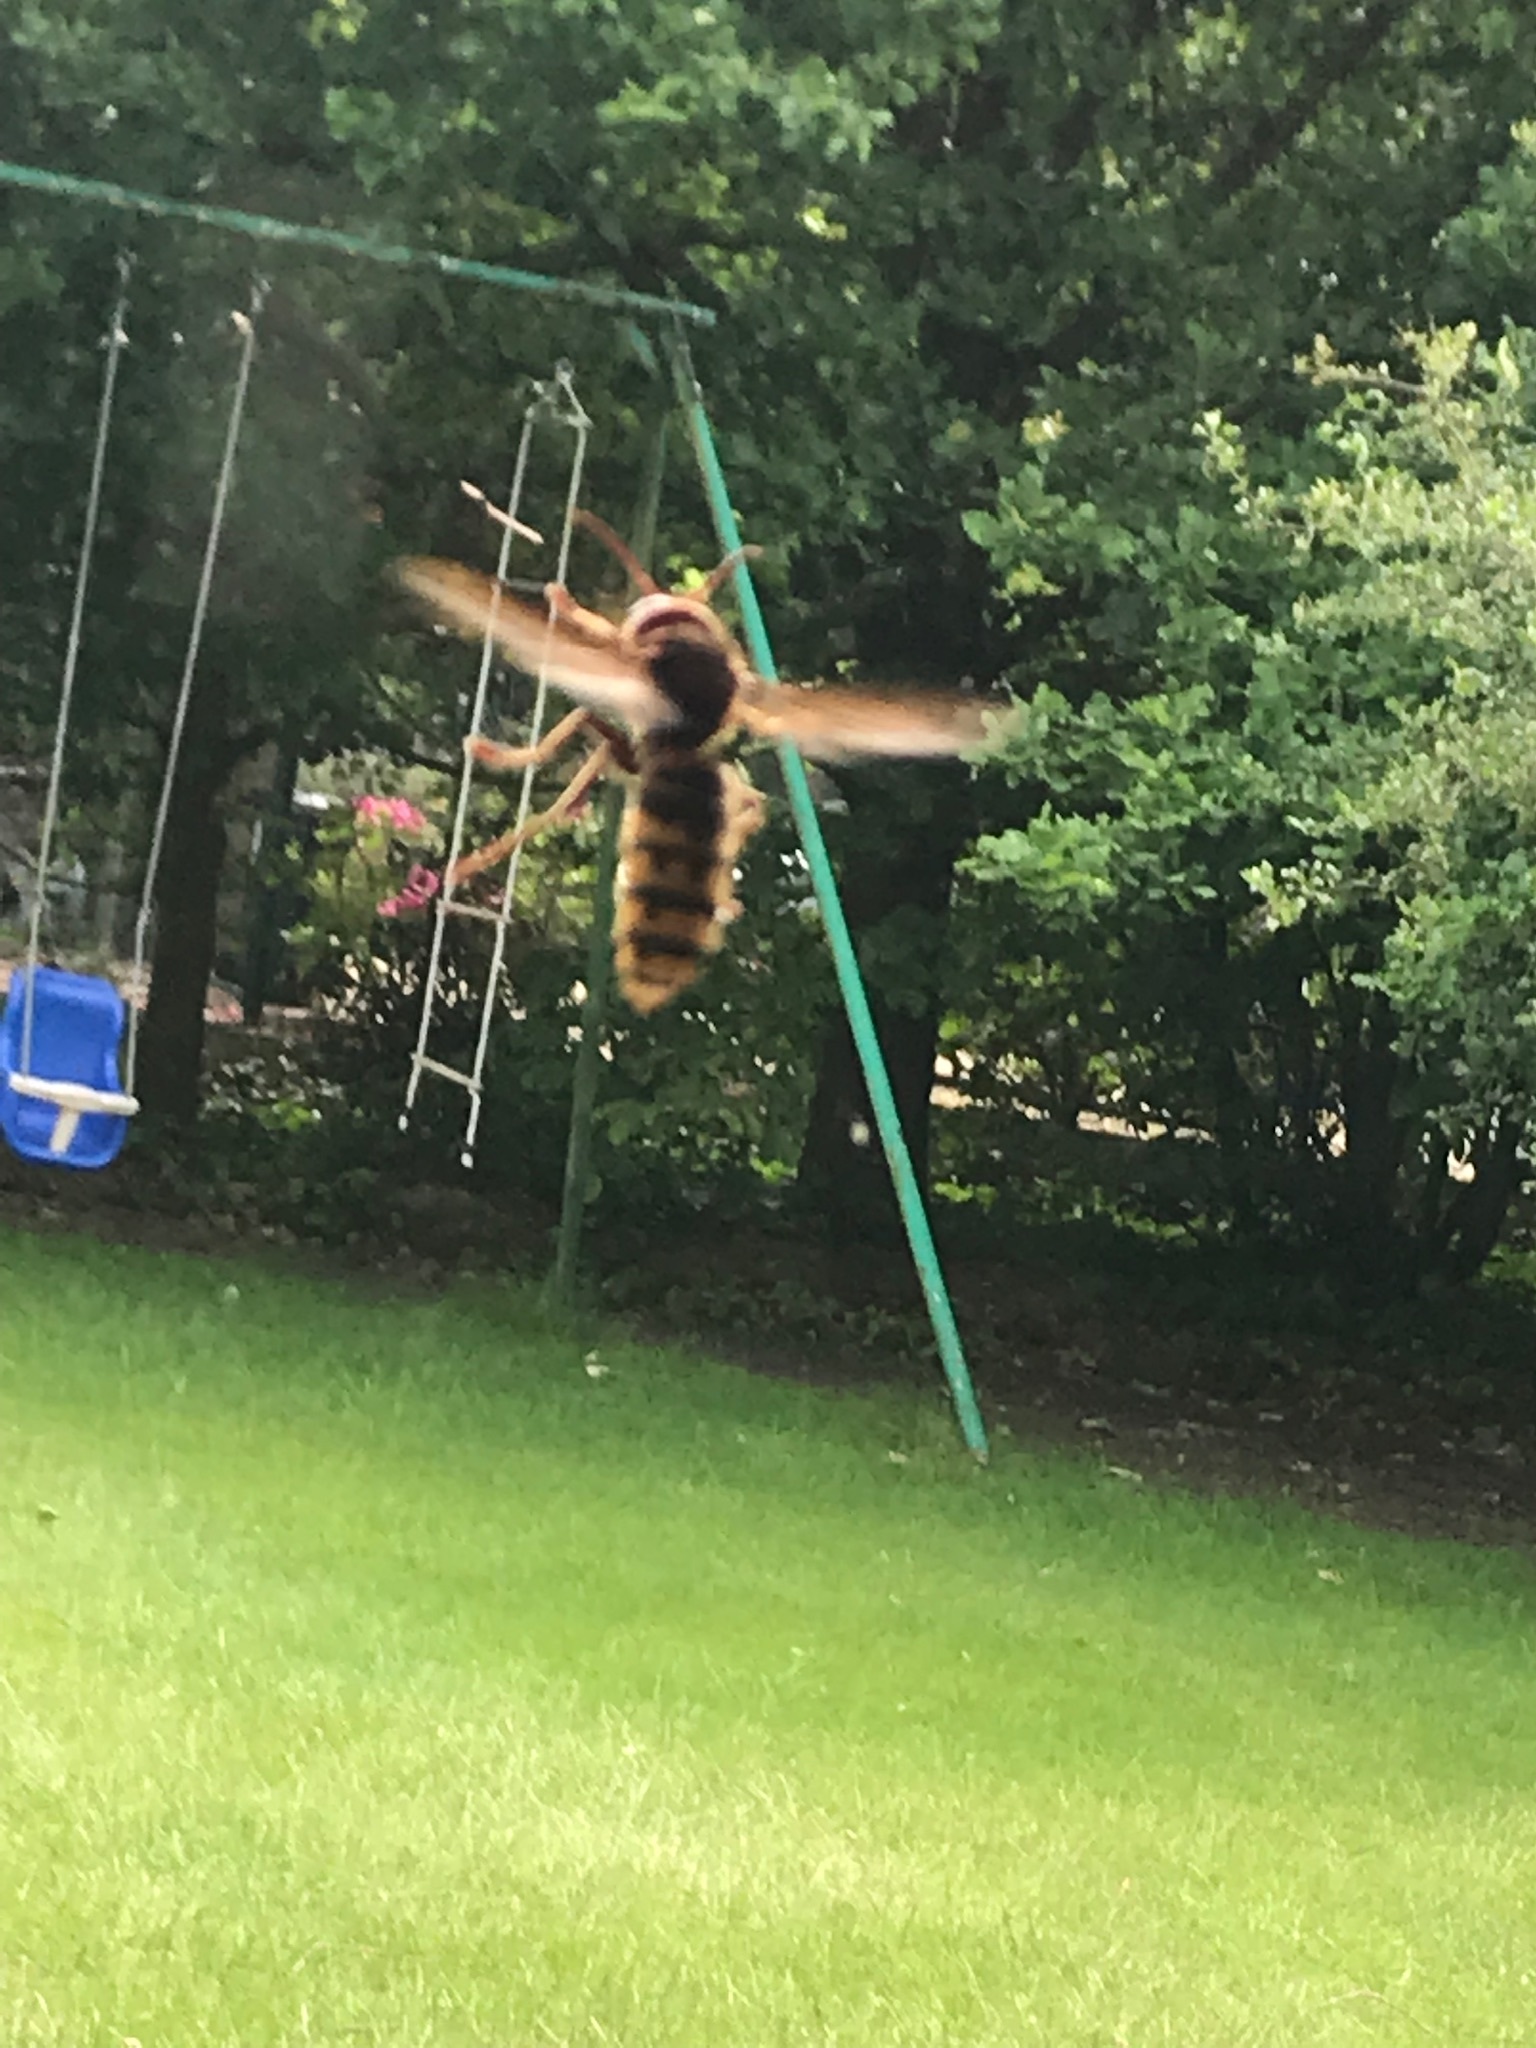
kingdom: Animalia
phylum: Arthropoda
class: Insecta
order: Hymenoptera
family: Vespidae
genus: Vespa
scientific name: Vespa crabro
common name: Hornet
